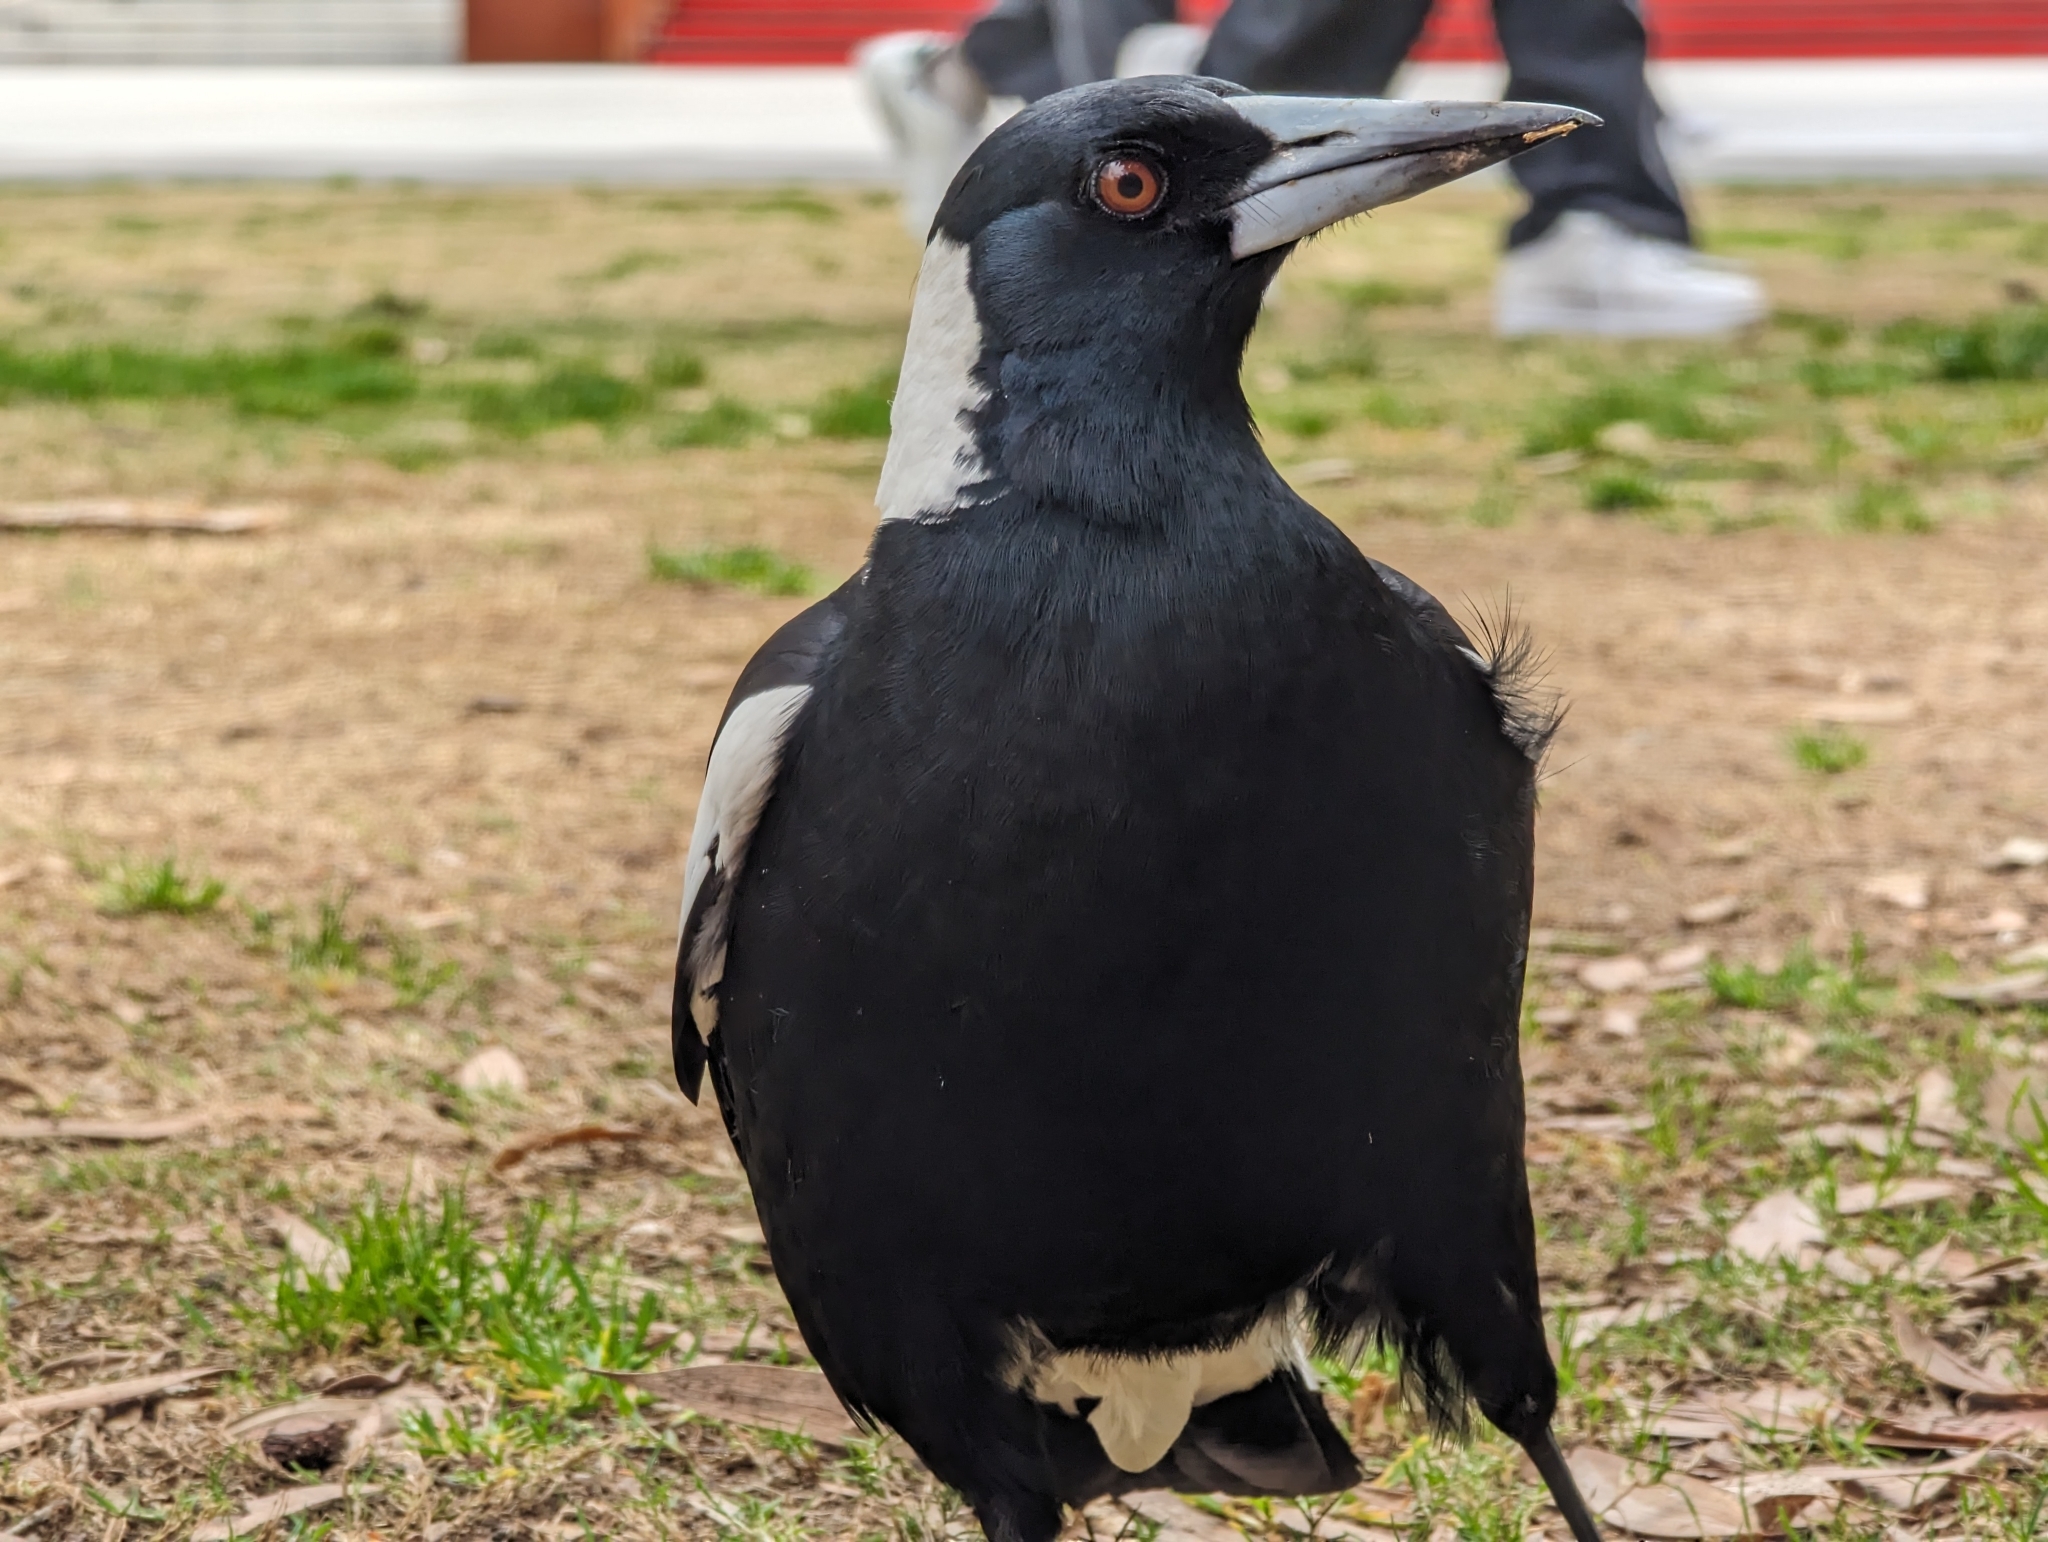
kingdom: Animalia
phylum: Chordata
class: Aves
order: Passeriformes
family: Cracticidae
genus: Gymnorhina
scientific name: Gymnorhina tibicen
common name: Australian magpie
